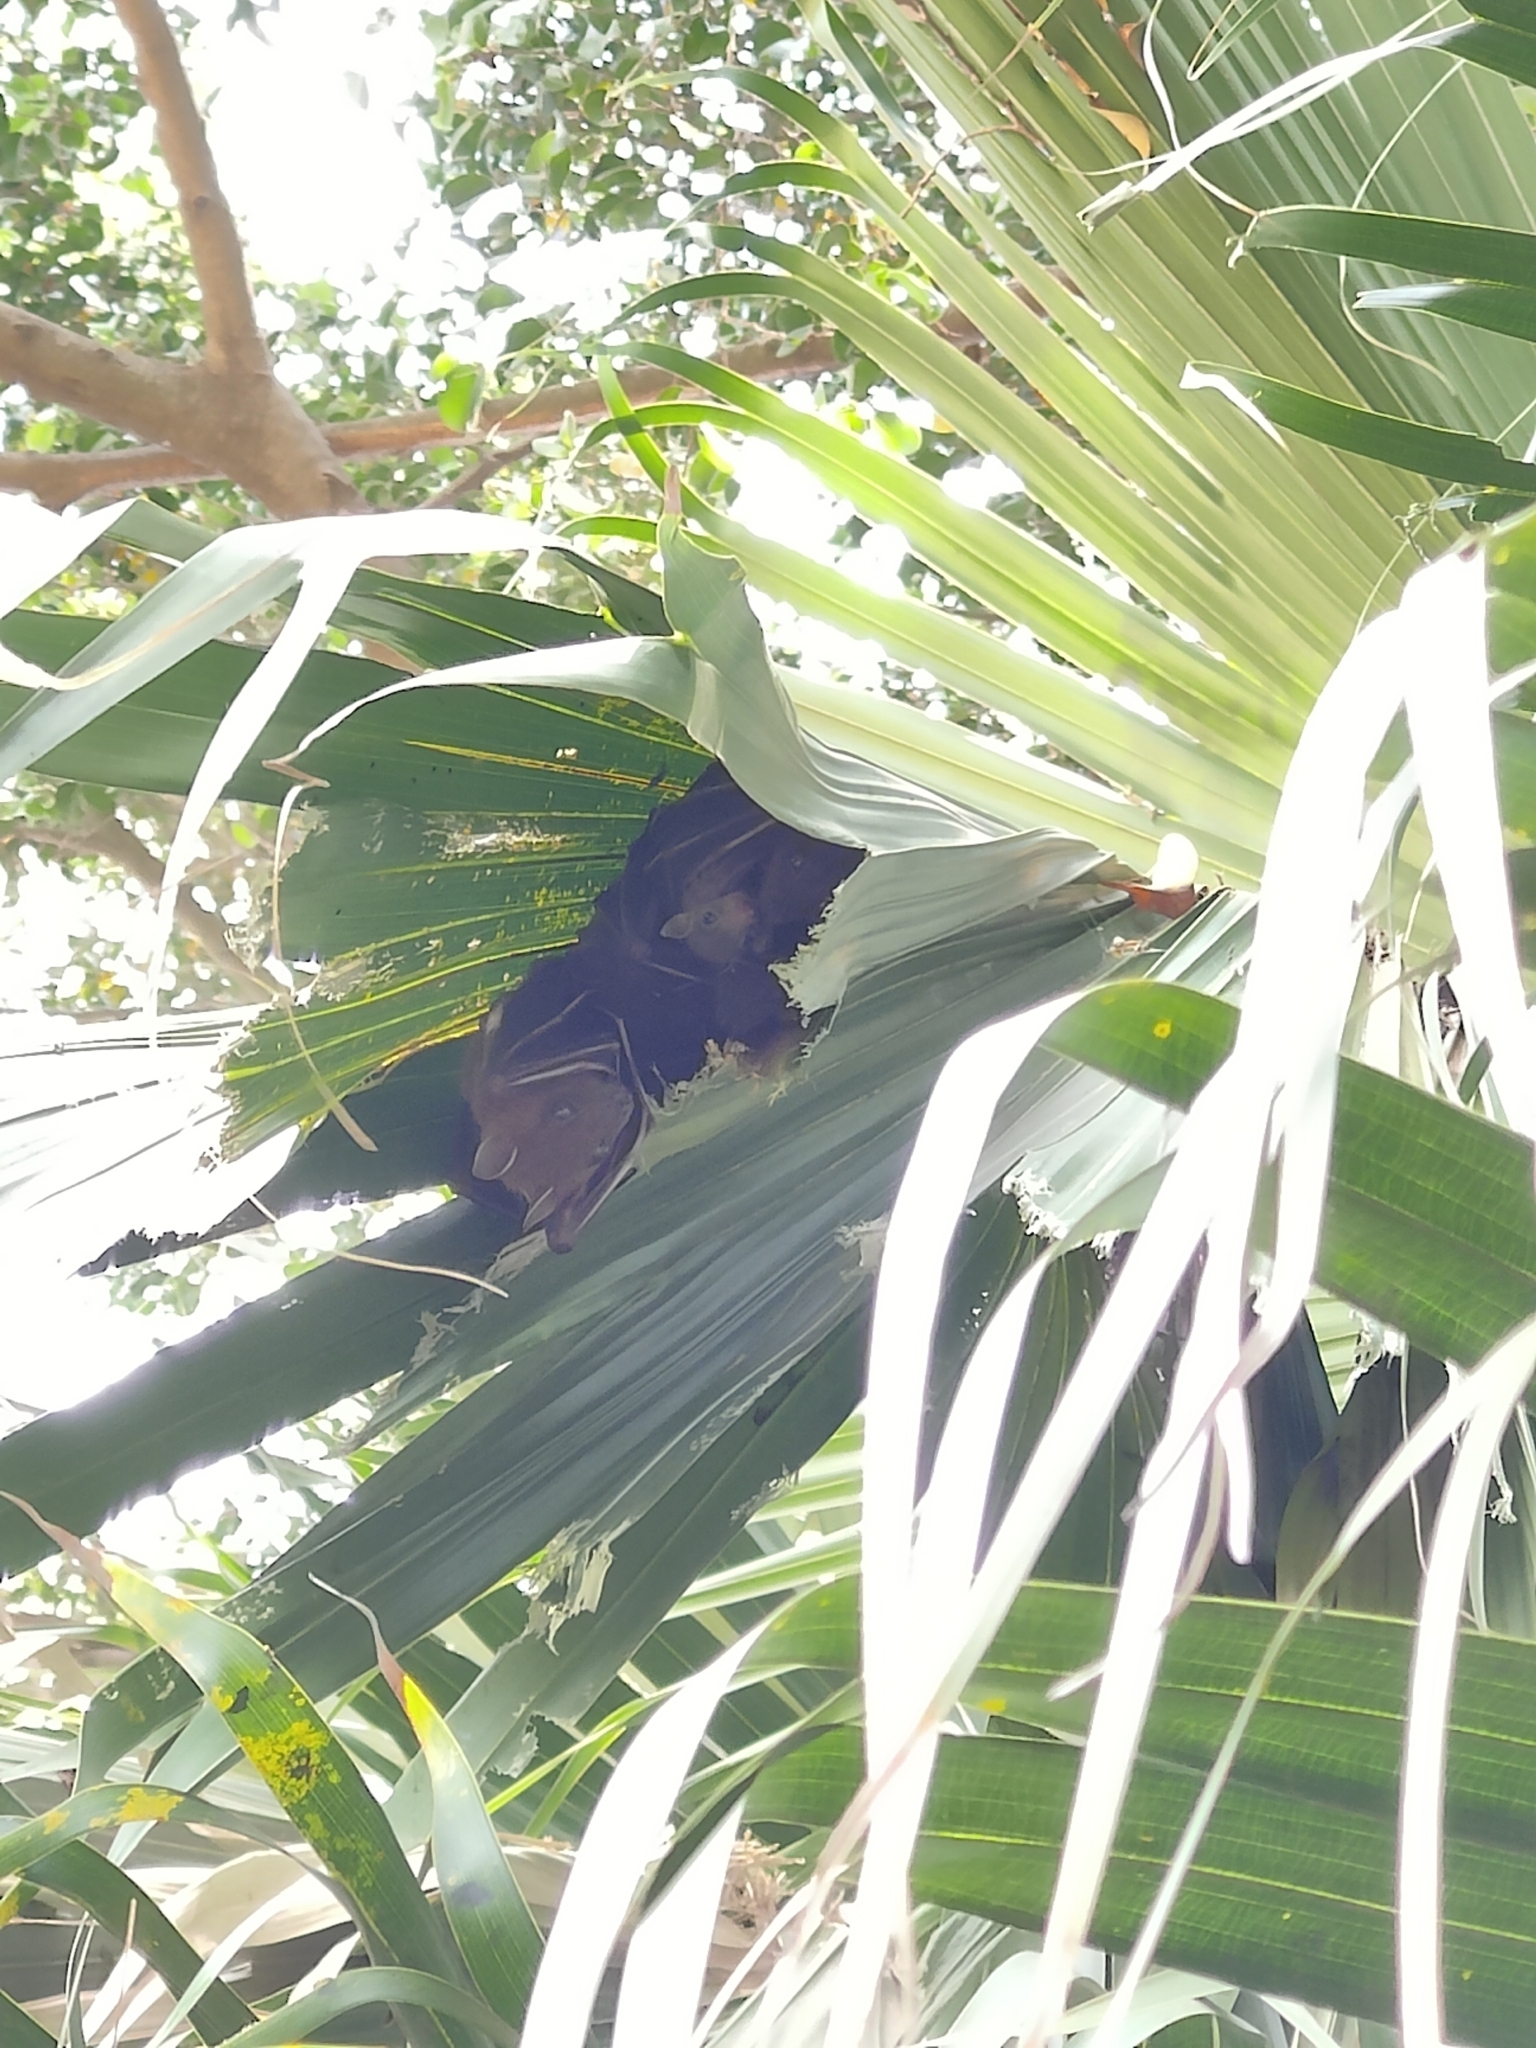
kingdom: Animalia
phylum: Chordata
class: Mammalia
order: Chiroptera
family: Pteropodidae
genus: Cynopterus
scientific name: Cynopterus sphinx
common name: Greater short-nosed fruit bat
